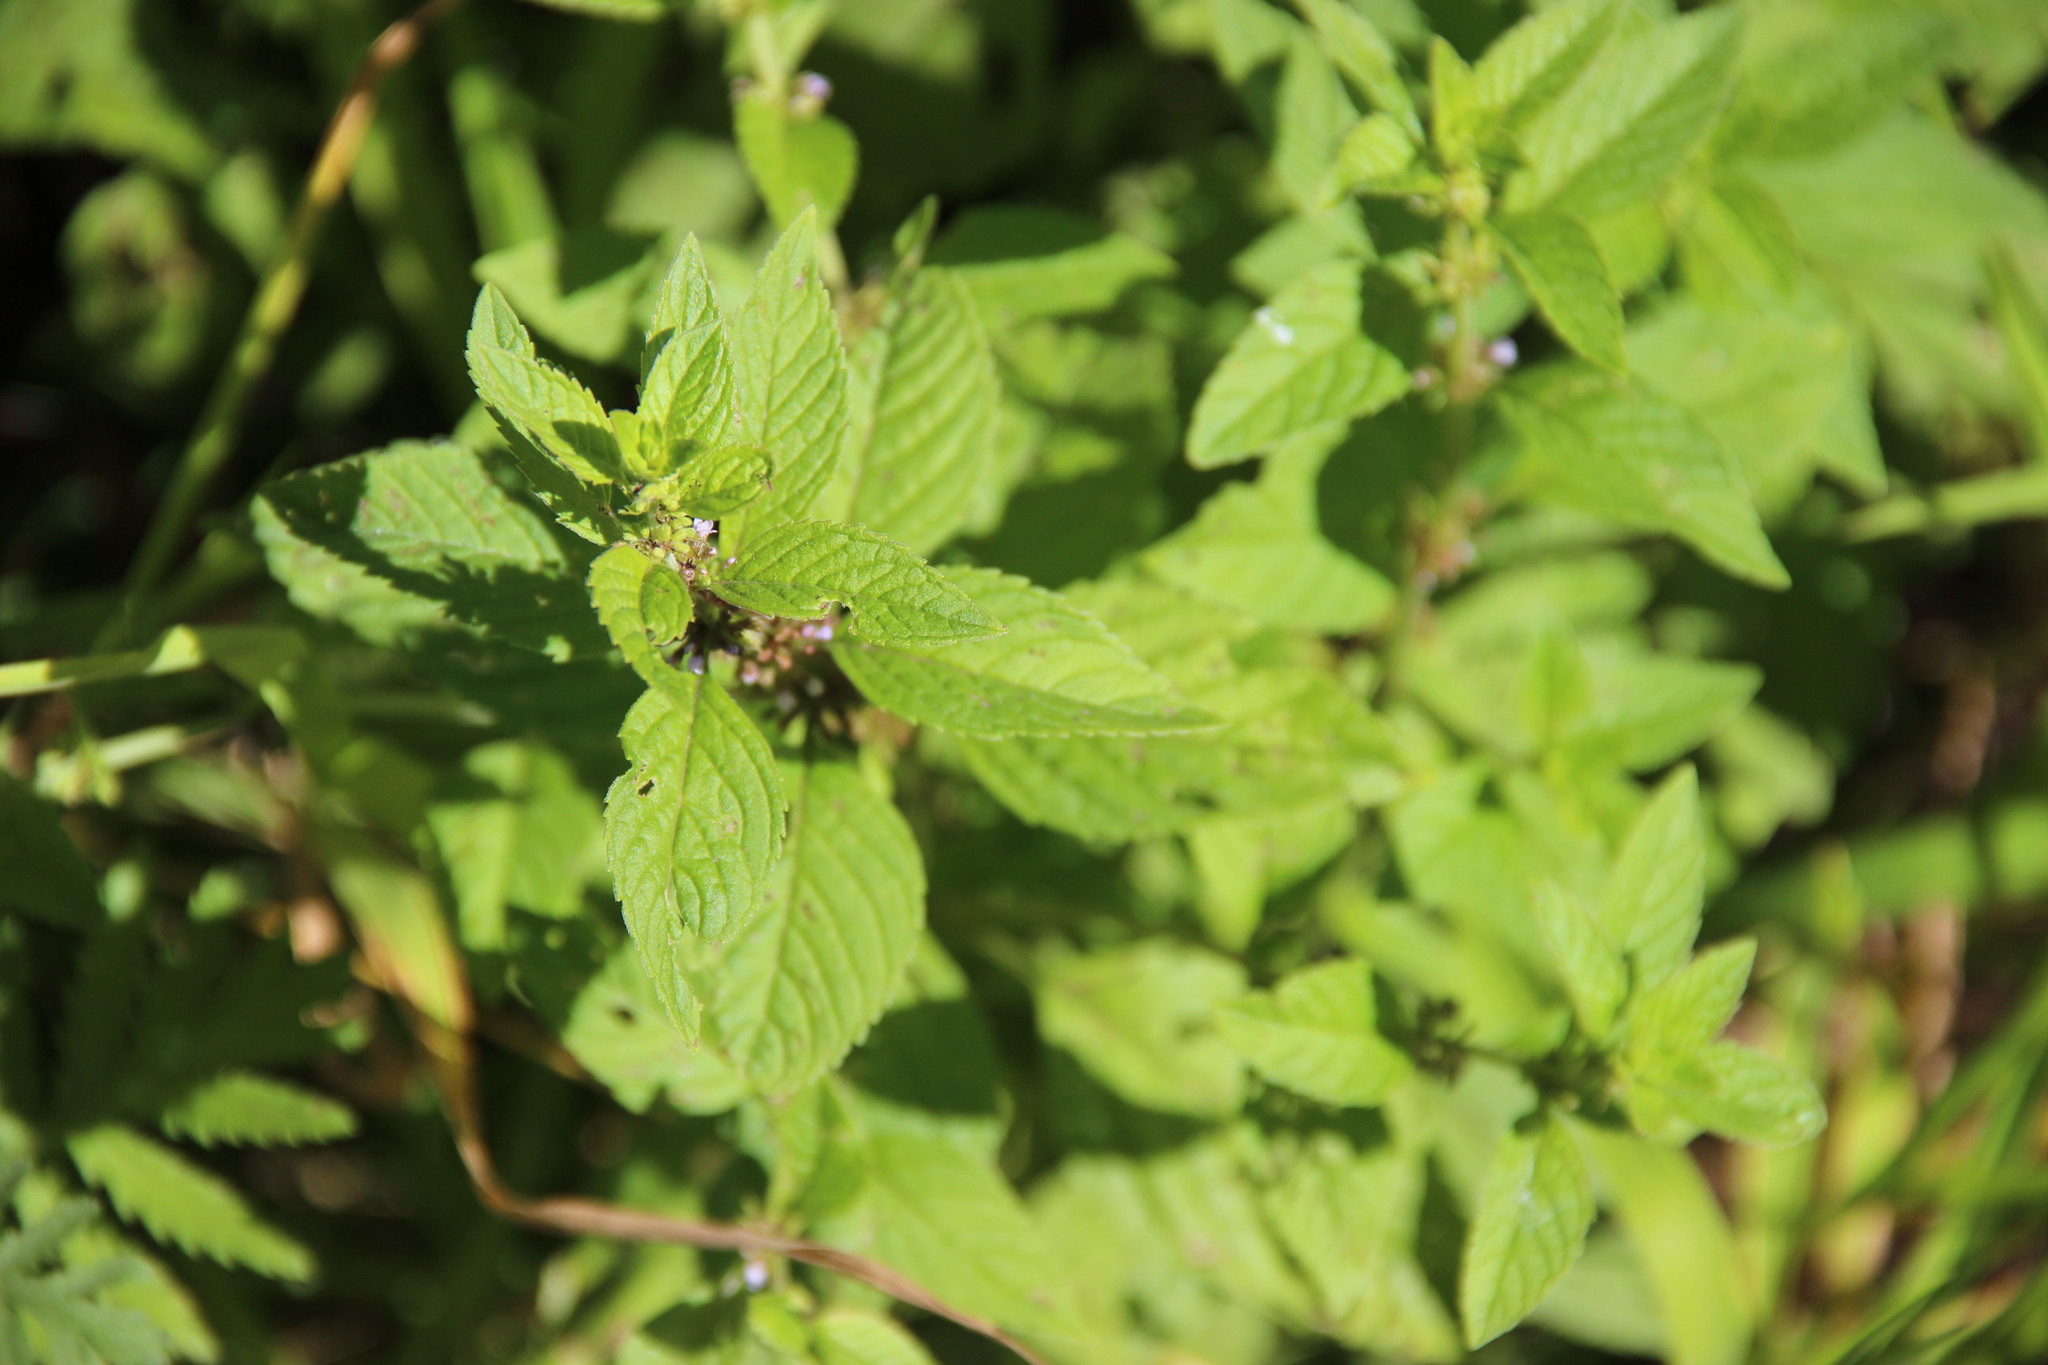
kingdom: Plantae
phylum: Tracheophyta
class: Magnoliopsida
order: Lamiales
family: Lamiaceae
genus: Mentha
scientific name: Mentha arvensis
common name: Corn mint
